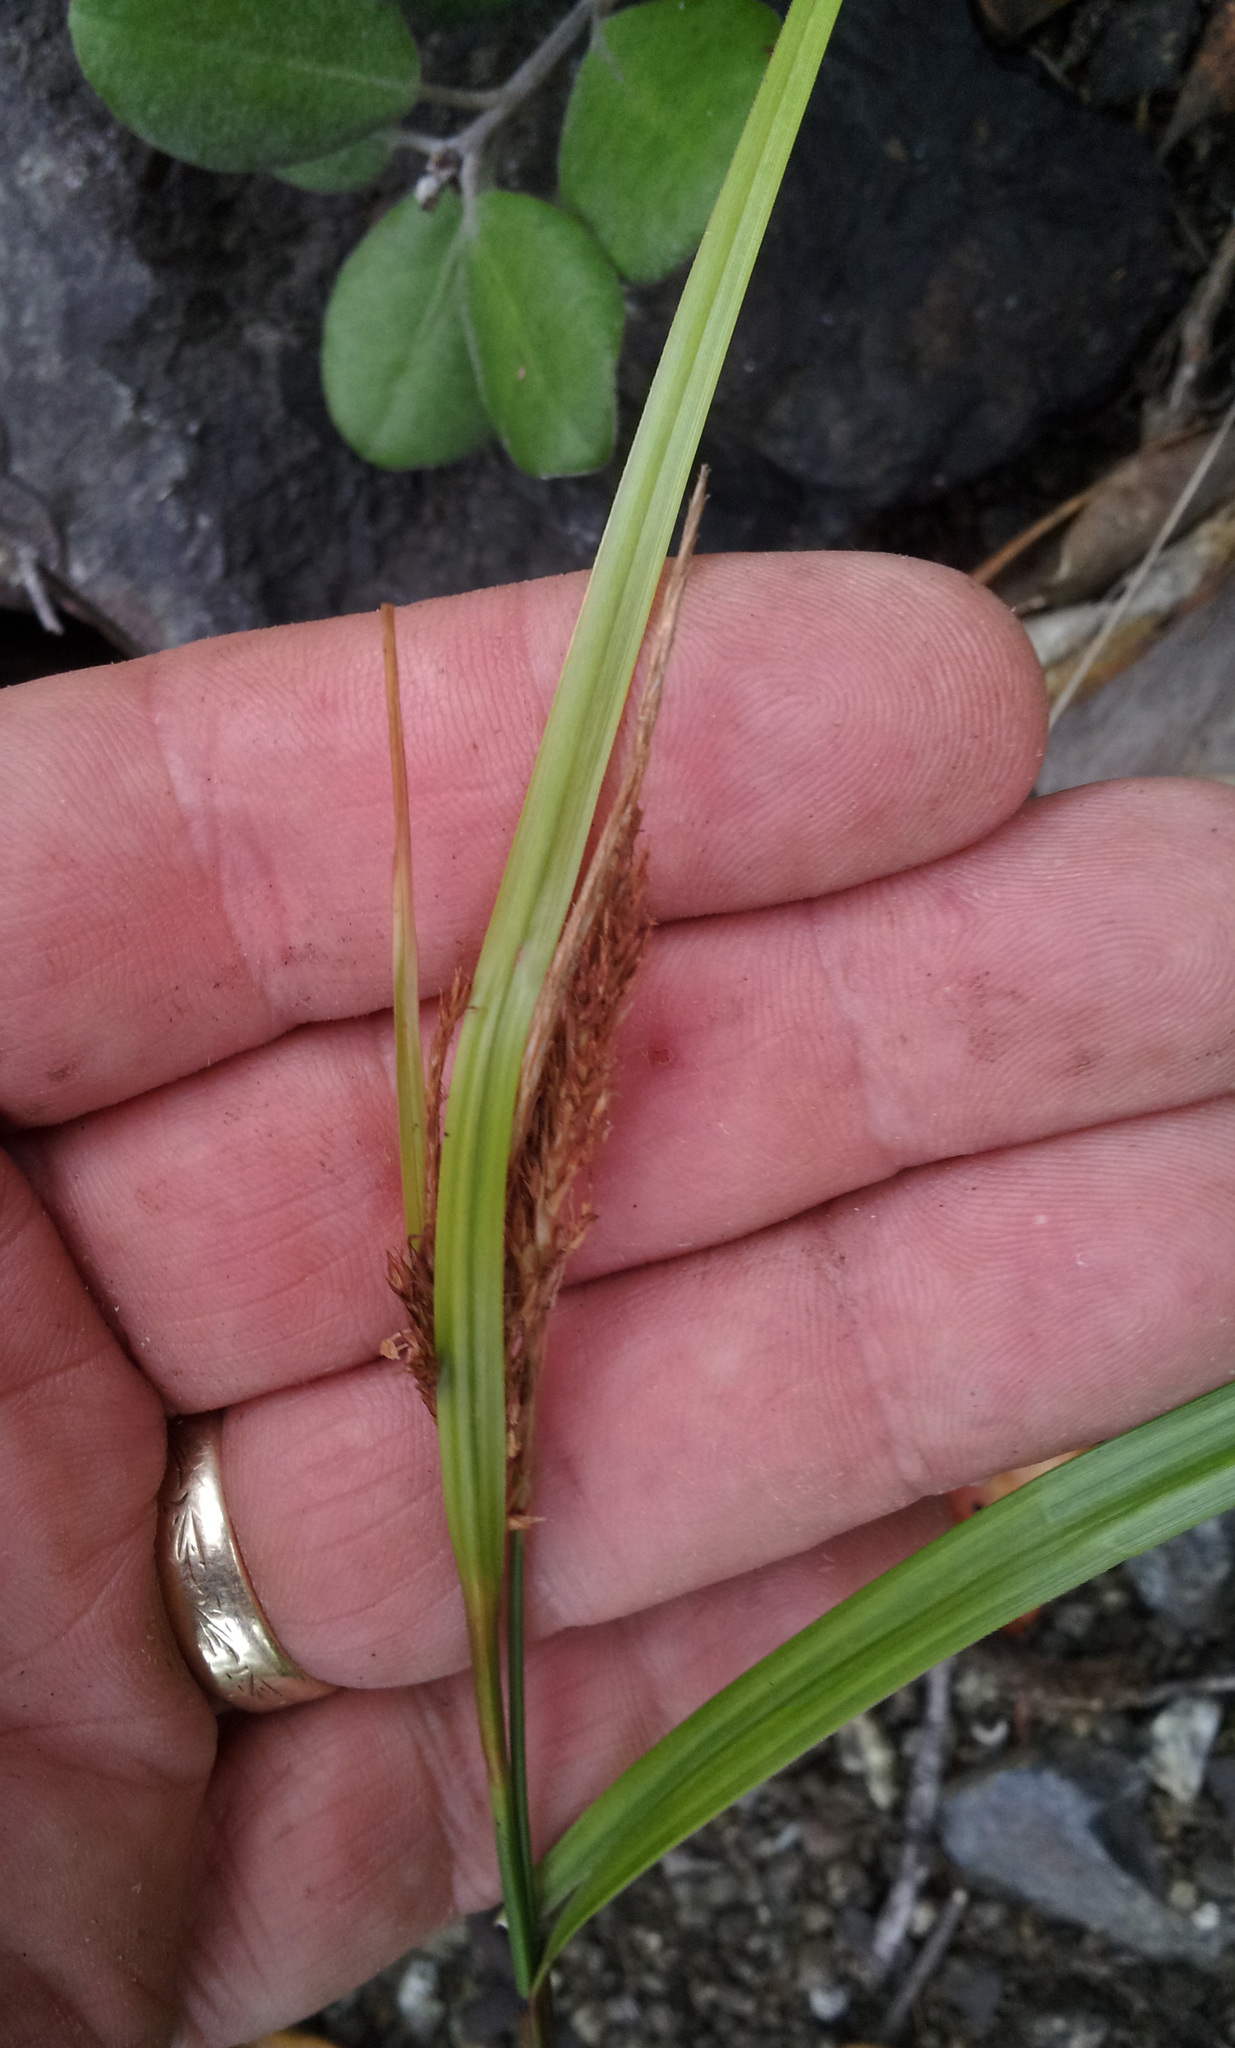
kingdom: Plantae
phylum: Tracheophyta
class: Liliopsida
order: Poales
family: Cyperaceae
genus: Carex
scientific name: Carex spinirostris
